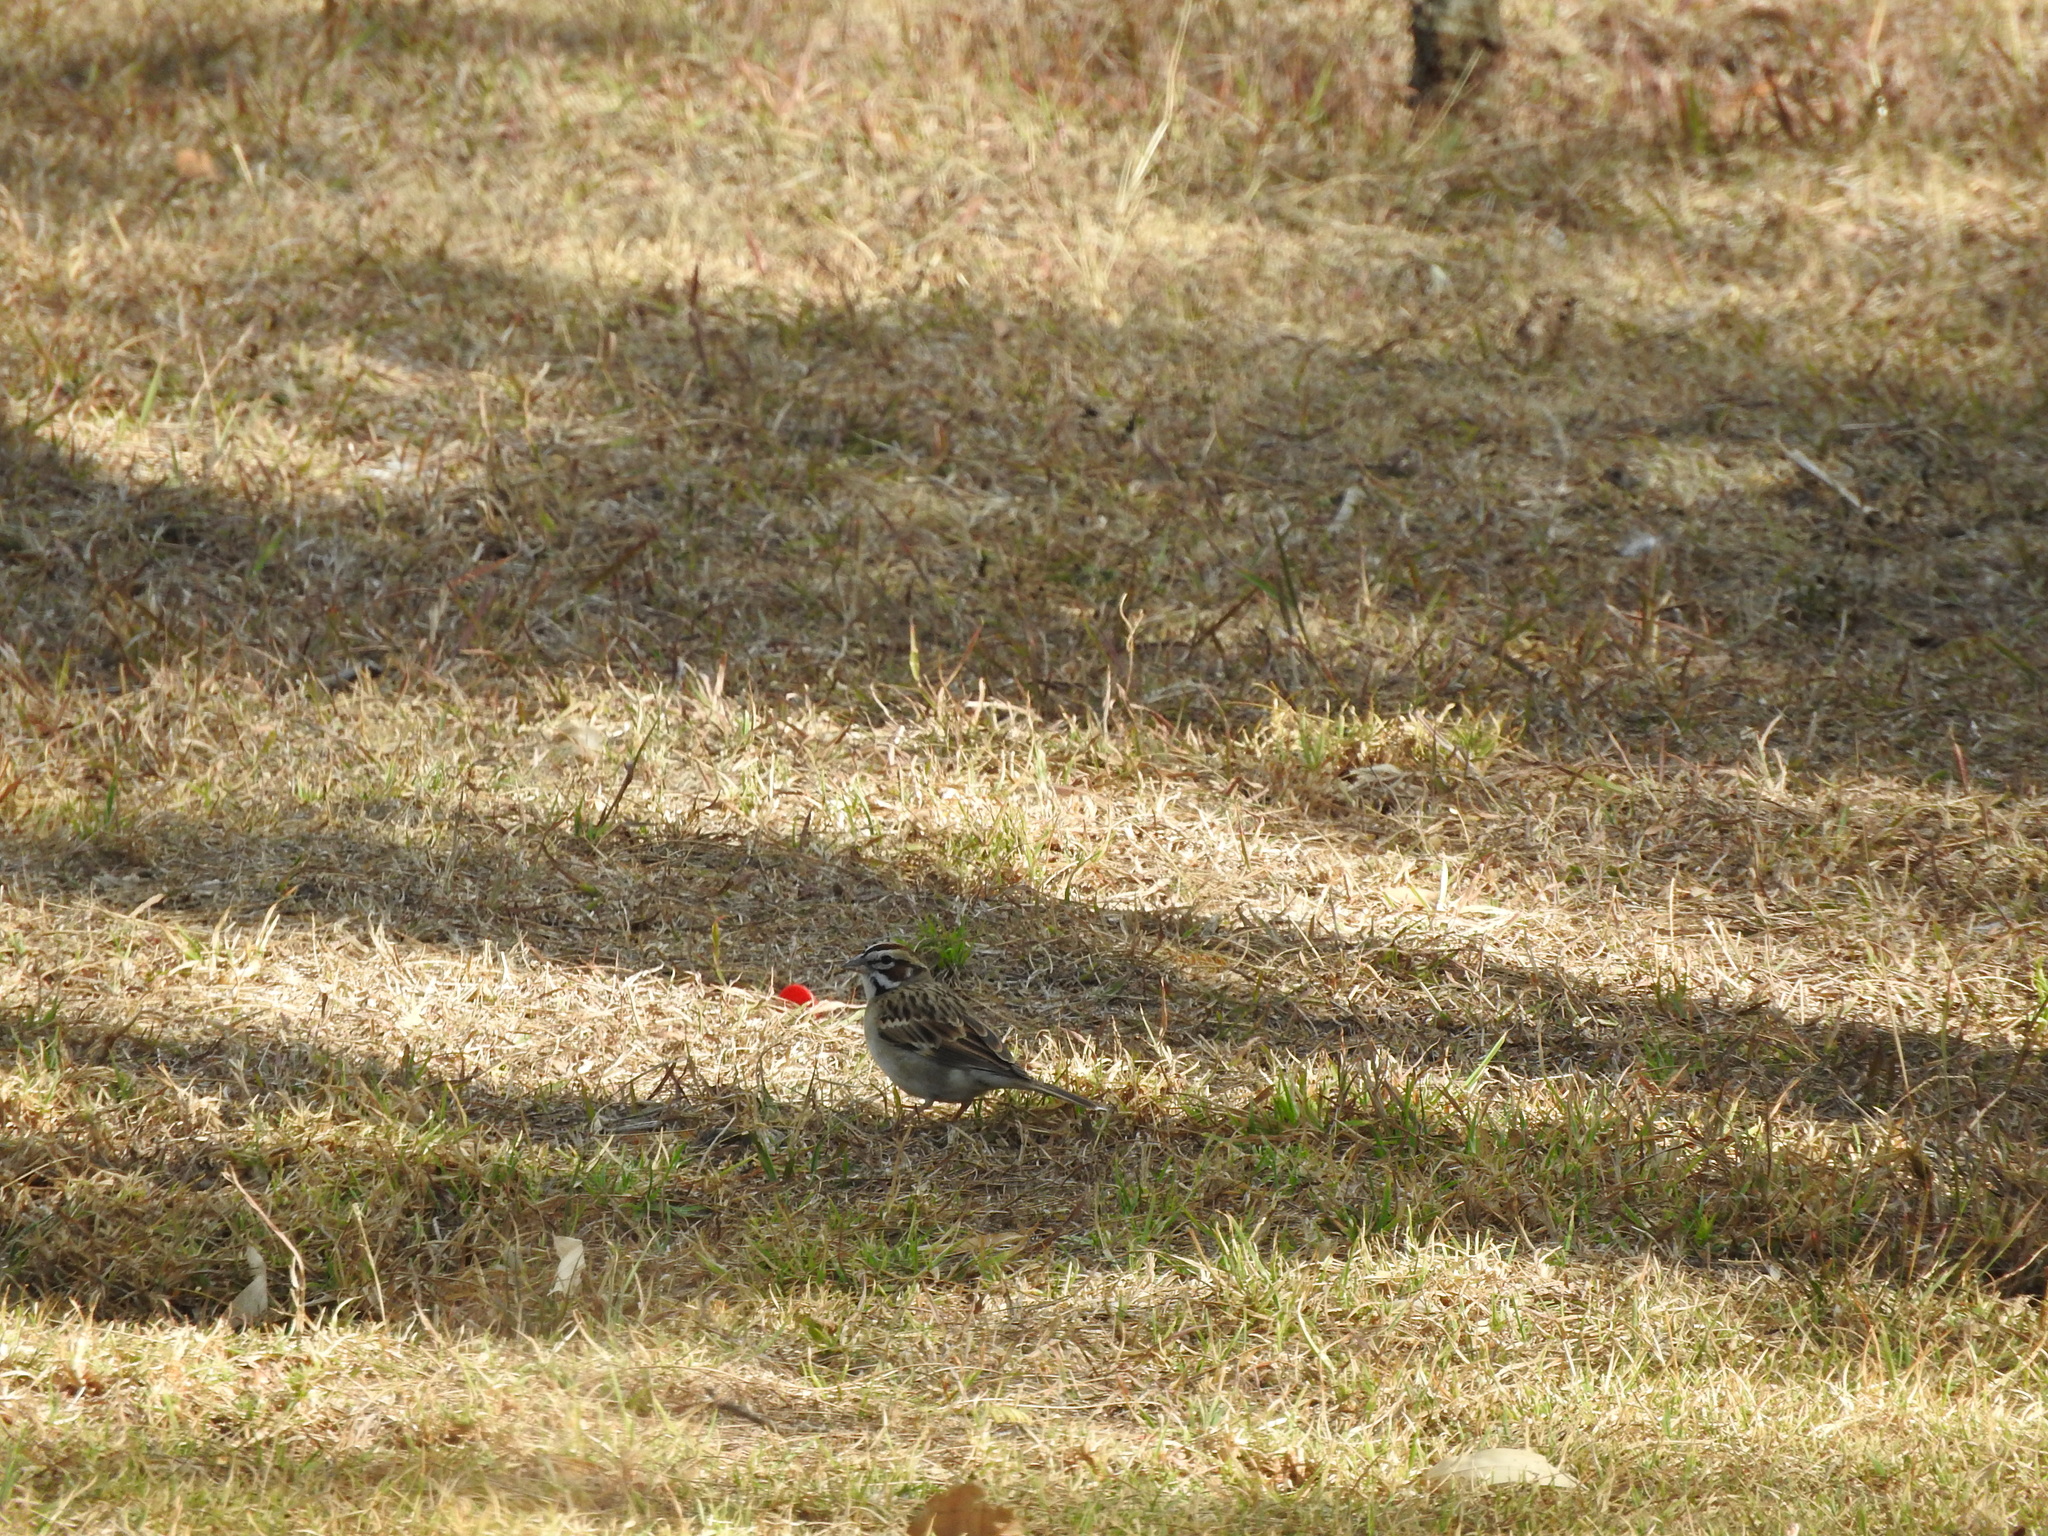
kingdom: Animalia
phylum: Chordata
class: Aves
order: Passeriformes
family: Passerellidae
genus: Chondestes
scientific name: Chondestes grammacus
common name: Lark sparrow
